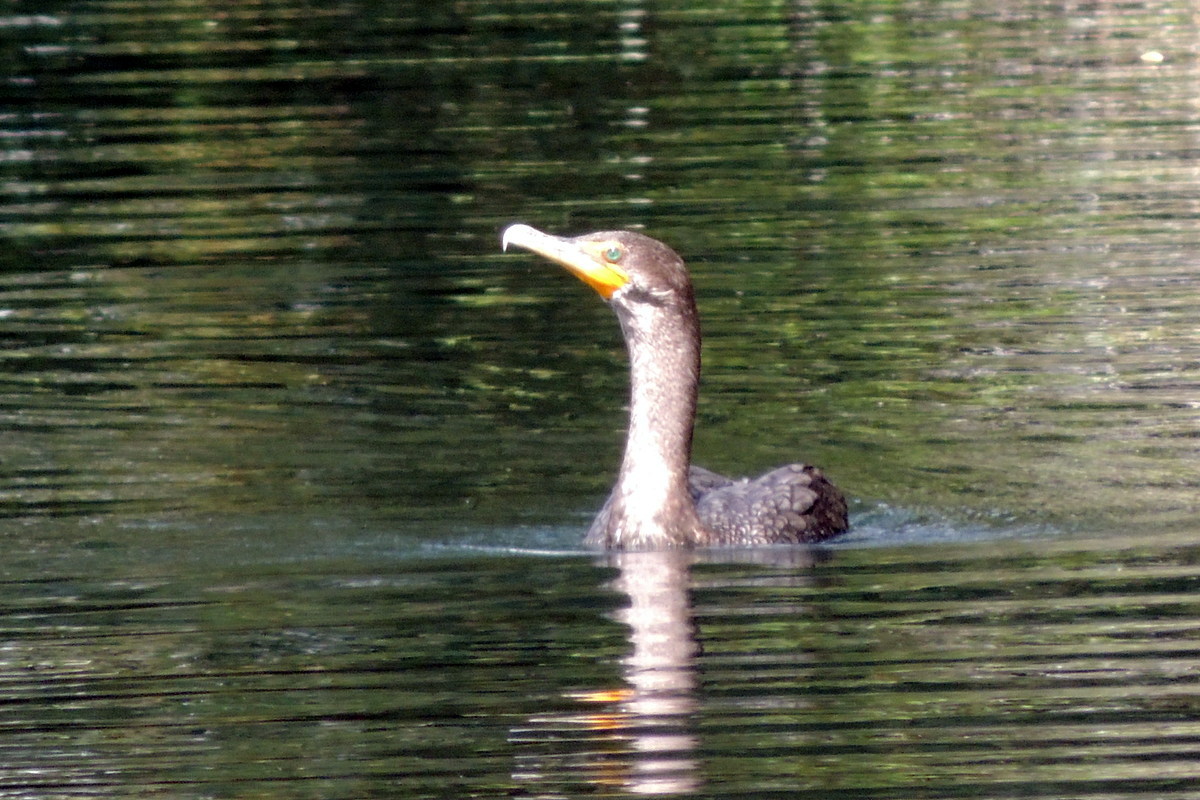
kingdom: Animalia
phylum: Chordata
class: Aves
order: Suliformes
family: Phalacrocoracidae
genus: Phalacrocorax
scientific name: Phalacrocorax auritus
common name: Double-crested cormorant
